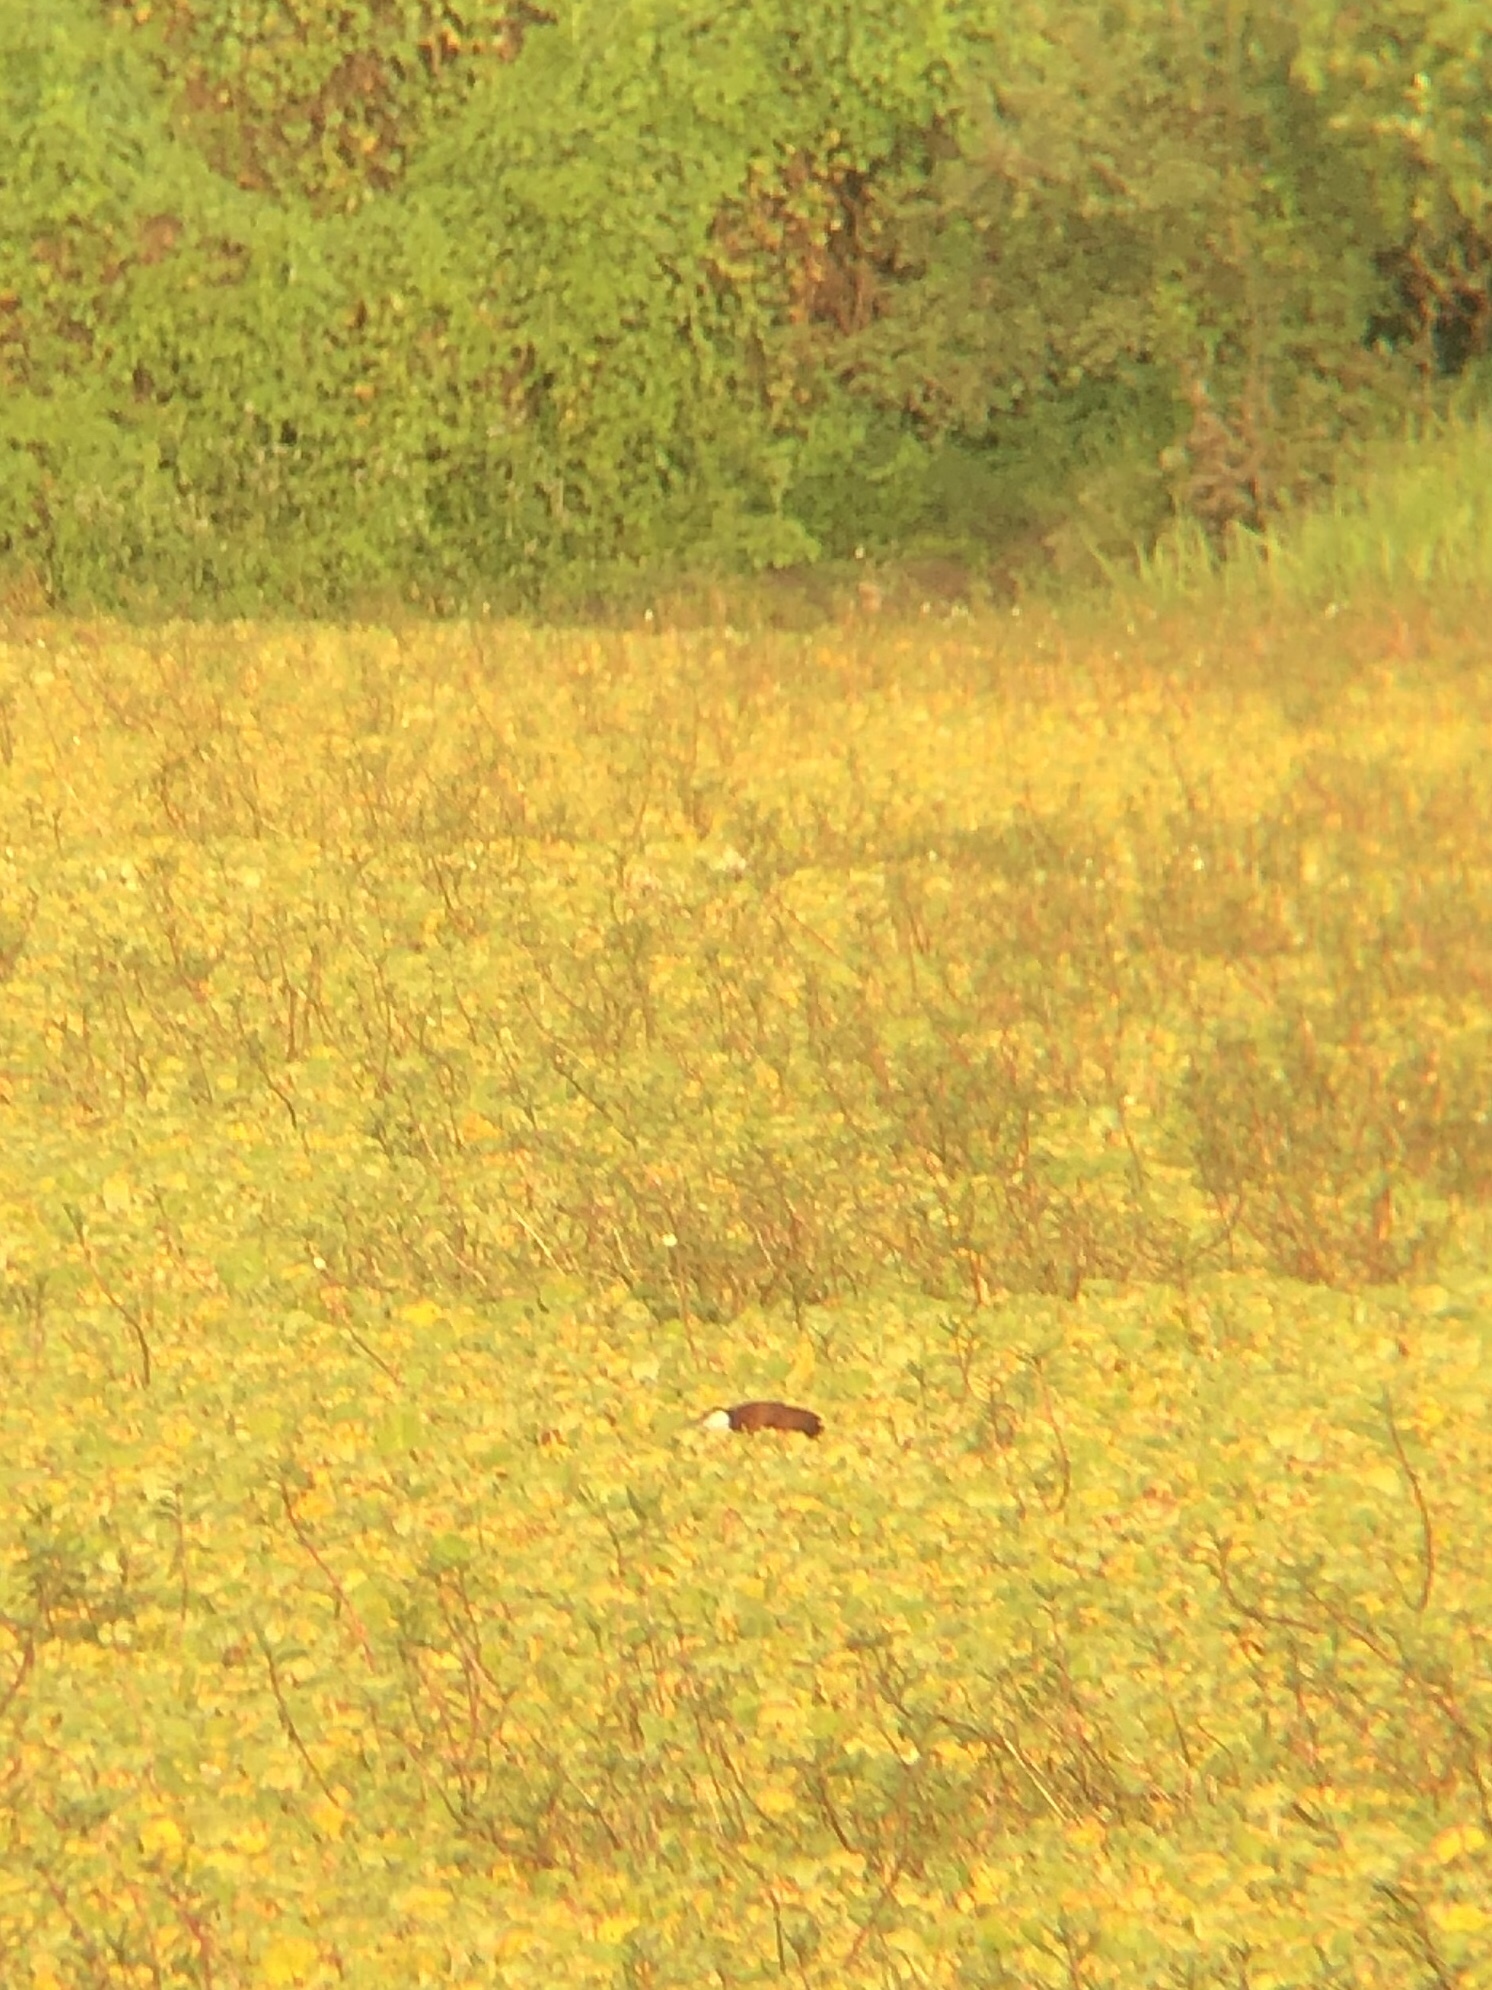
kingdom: Animalia
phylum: Chordata
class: Aves
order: Charadriiformes
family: Jacanidae
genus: Actophilornis
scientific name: Actophilornis africanus
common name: African jacana
